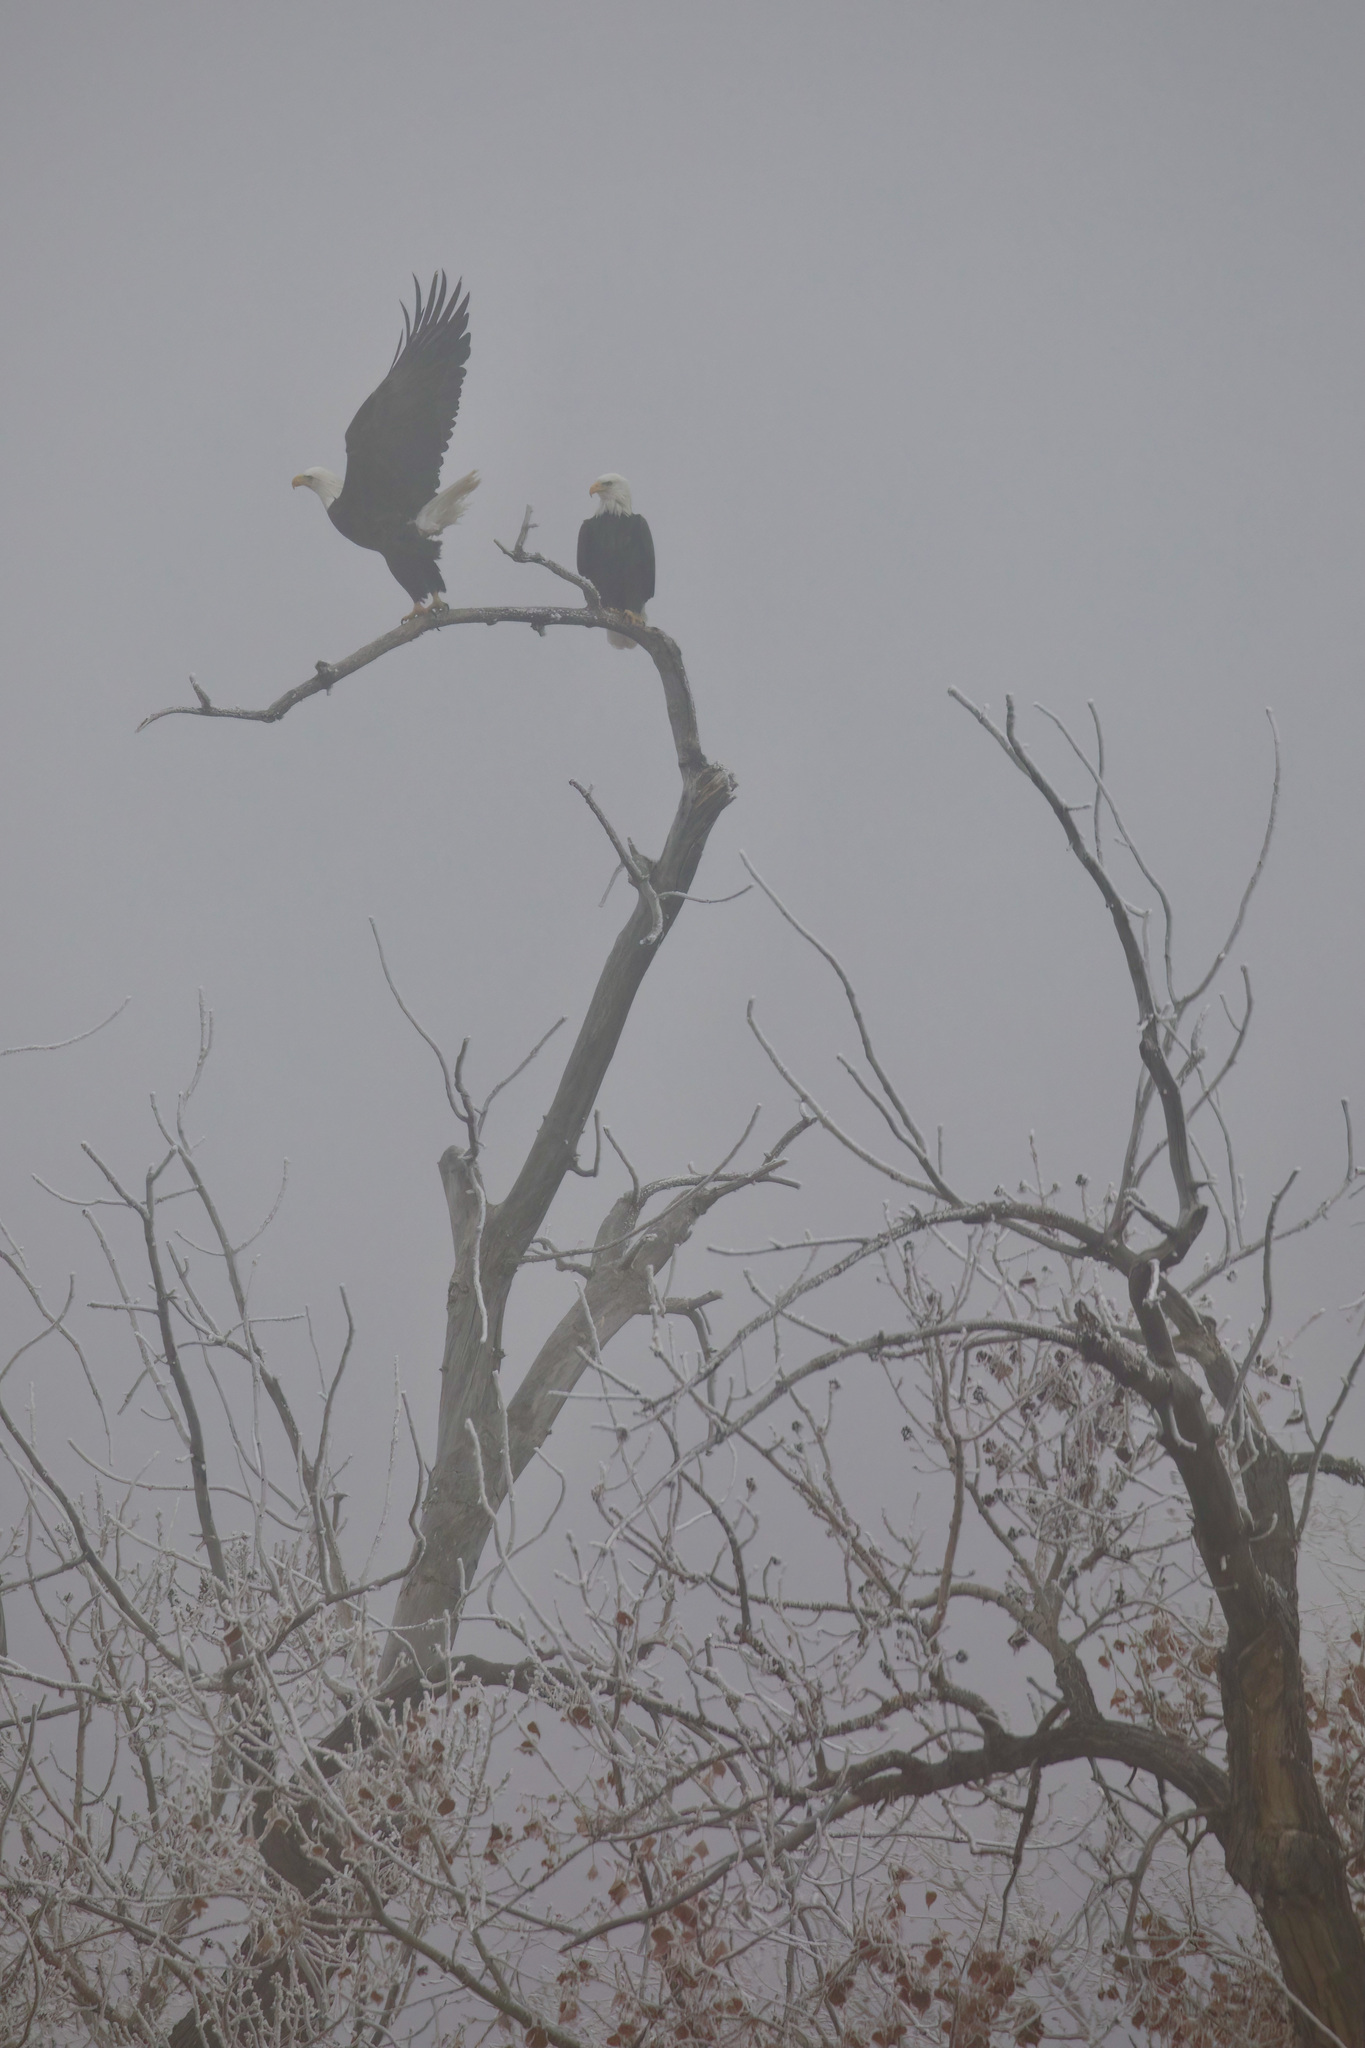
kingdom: Animalia
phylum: Chordata
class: Aves
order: Accipitriformes
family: Accipitridae
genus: Haliaeetus
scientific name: Haliaeetus leucocephalus
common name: Bald eagle
